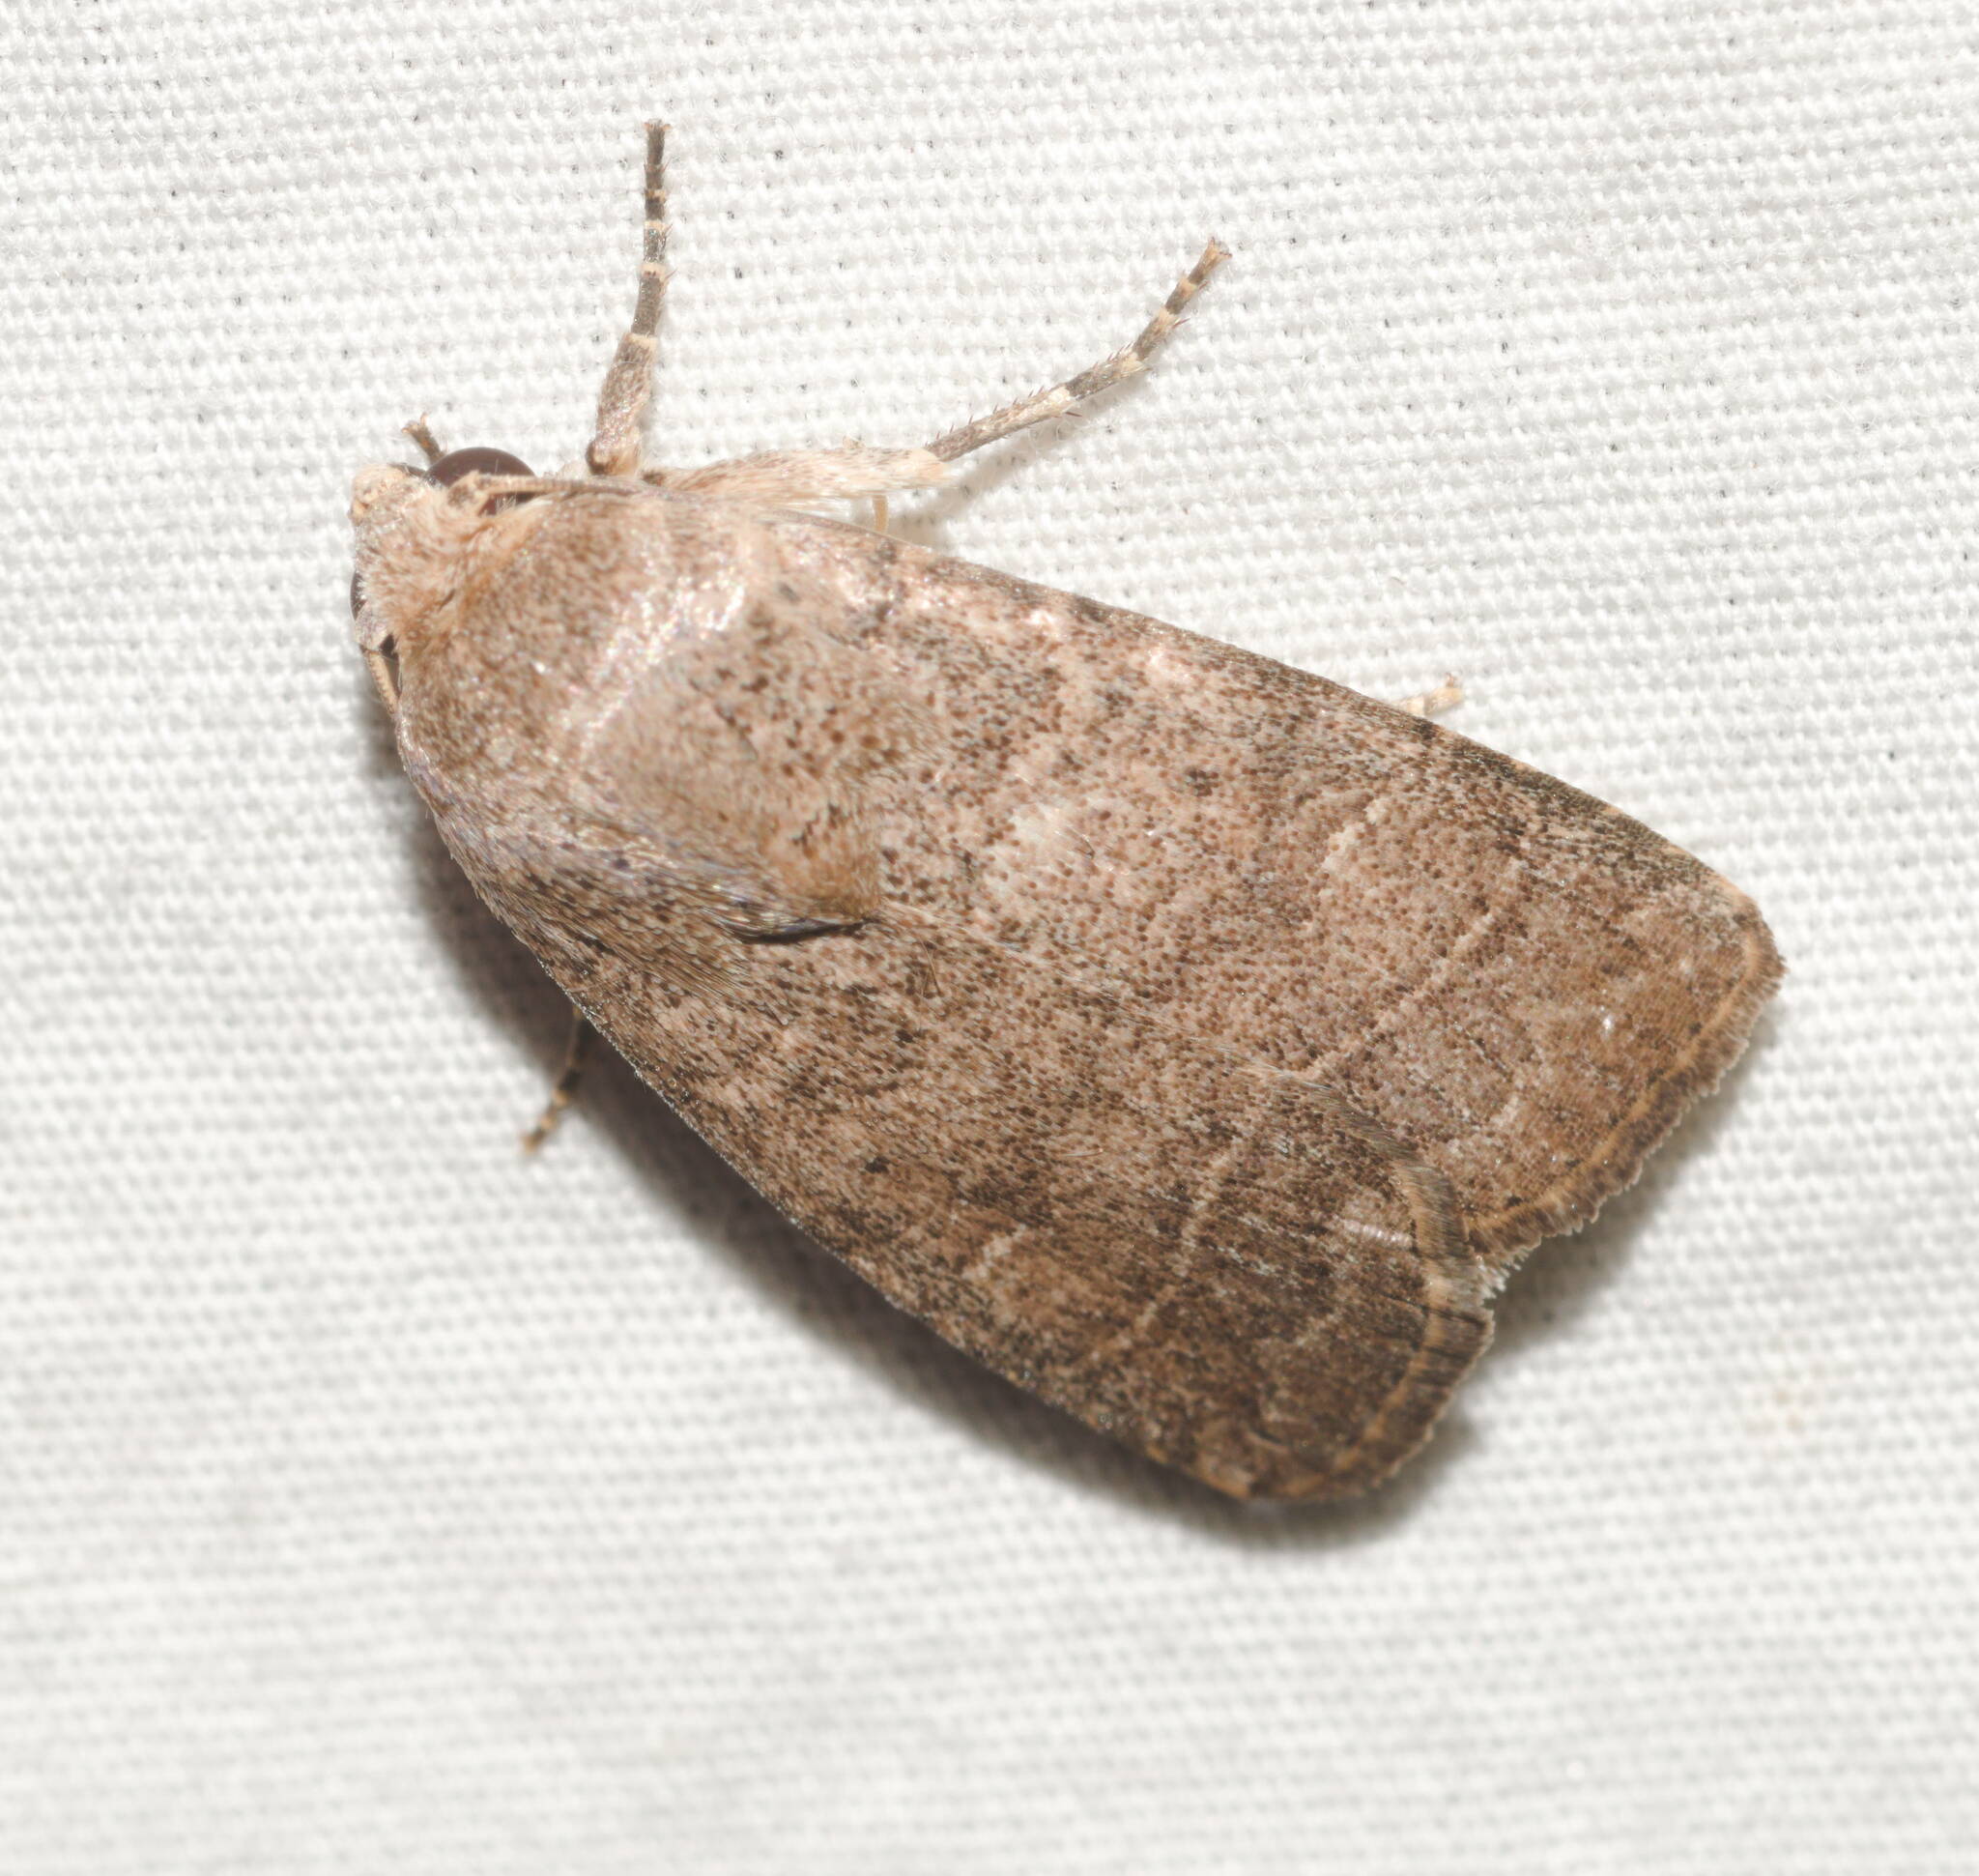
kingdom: Animalia
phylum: Arthropoda
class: Insecta
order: Lepidoptera
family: Noctuidae
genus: Athetis
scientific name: Athetis thoracica
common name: Cutworm
